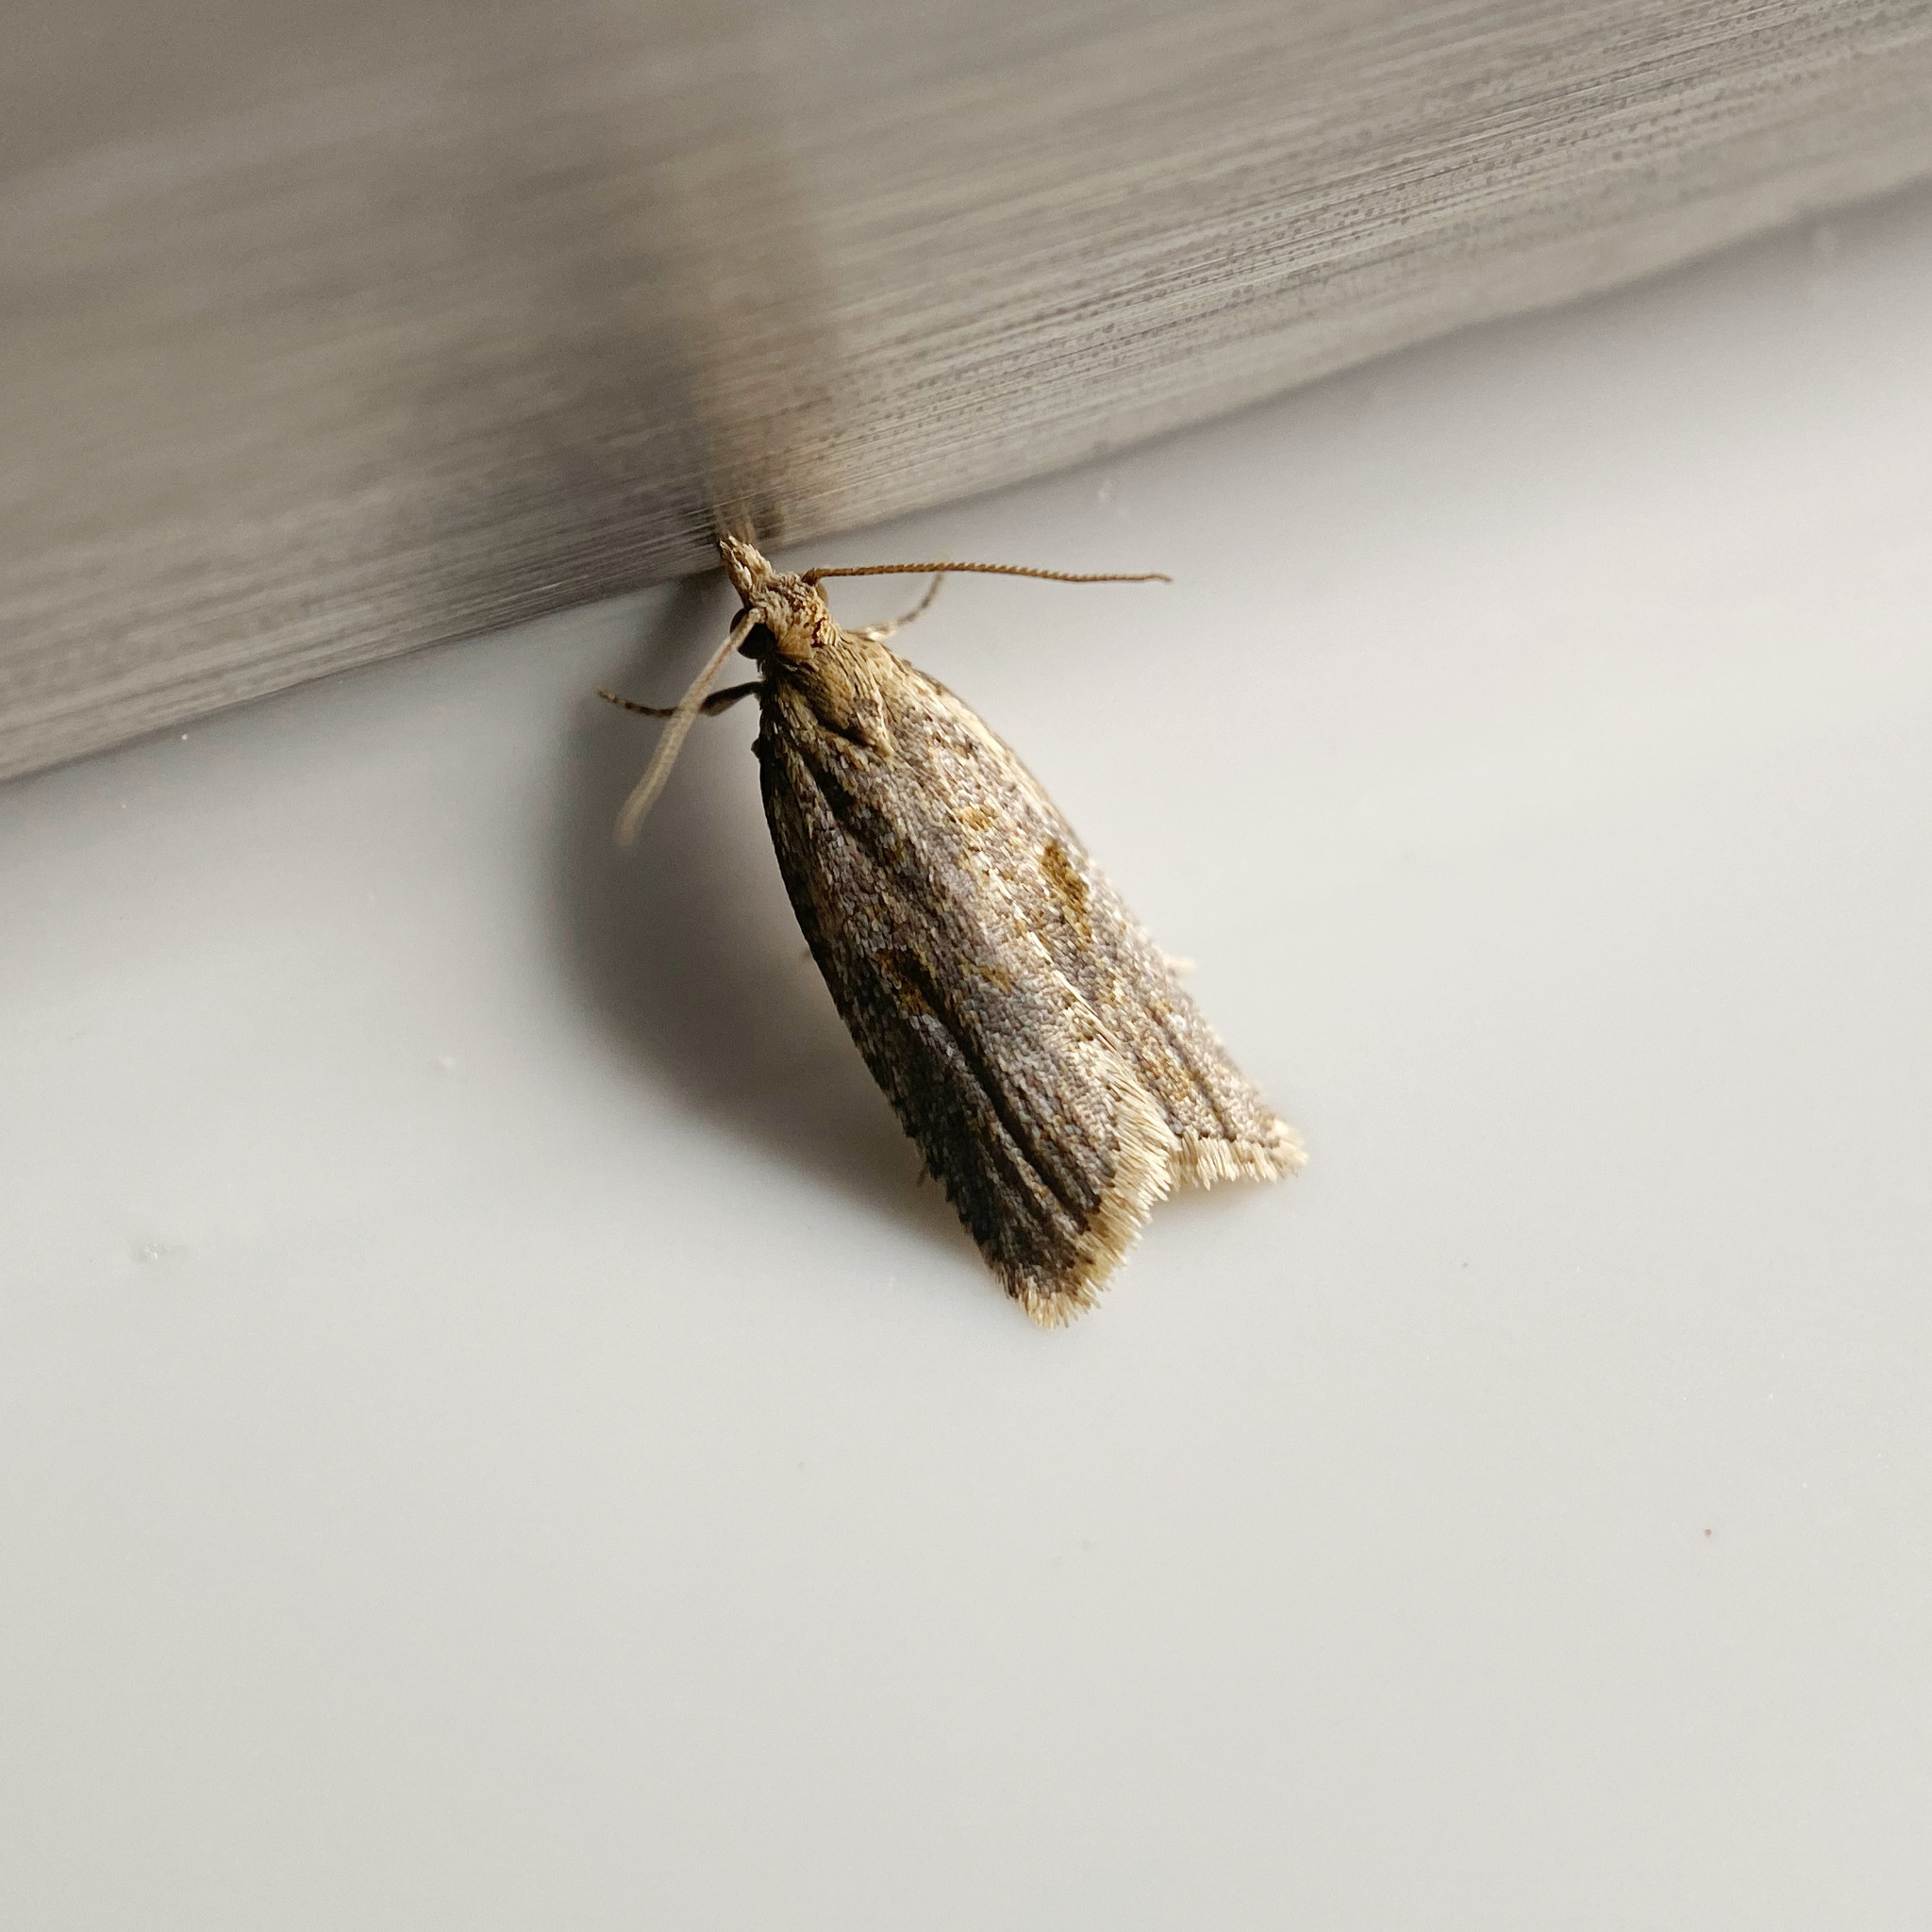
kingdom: Animalia
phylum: Arthropoda
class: Insecta
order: Lepidoptera
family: Tortricidae
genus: Capua
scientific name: Capua semiferana
